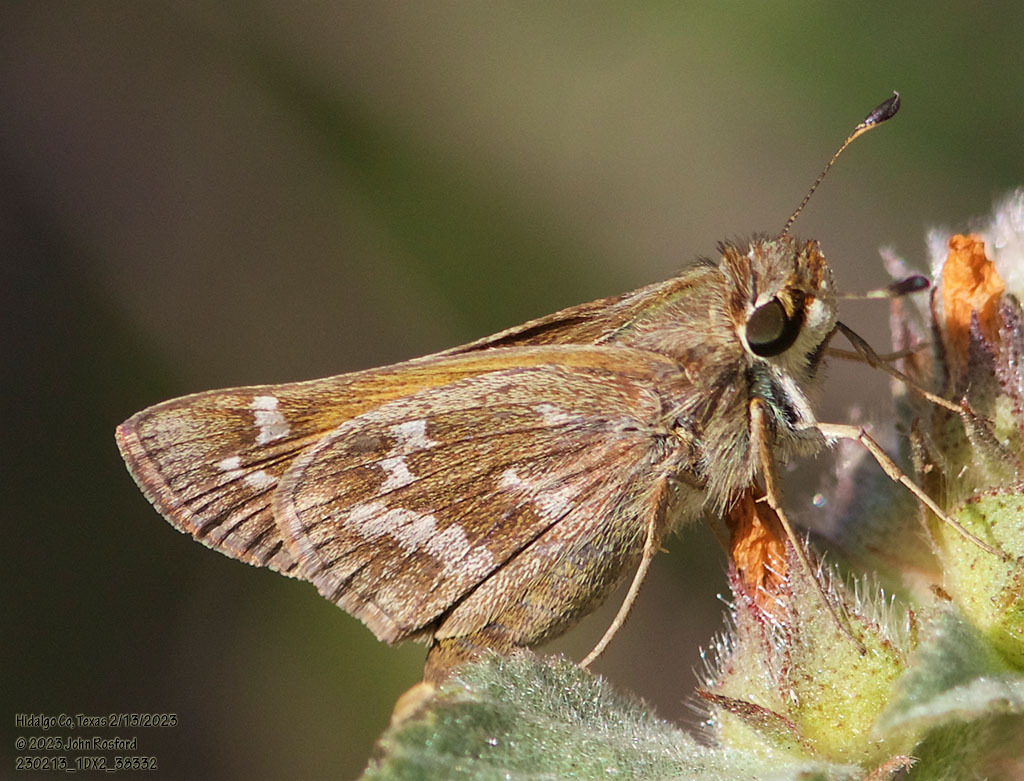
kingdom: Animalia
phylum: Arthropoda
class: Insecta
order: Lepidoptera
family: Hesperiidae
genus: Atalopedes
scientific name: Atalopedes
